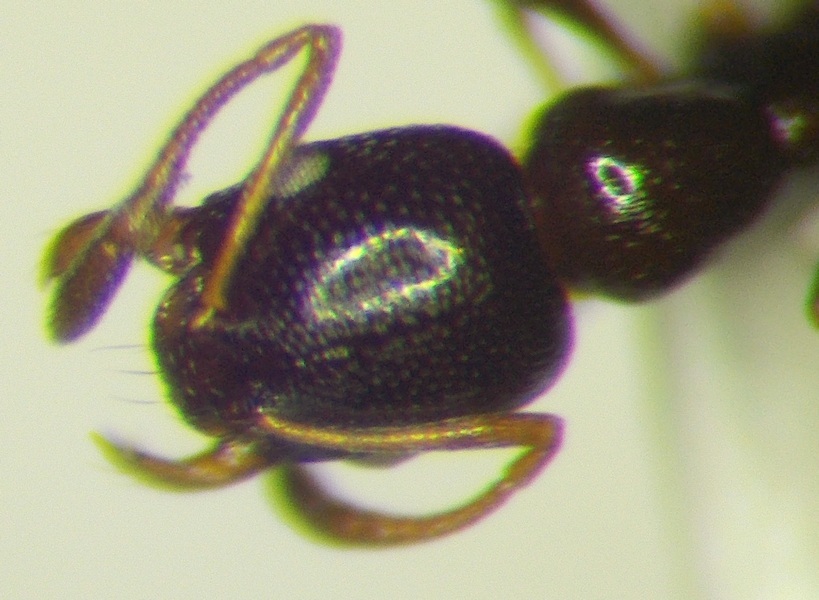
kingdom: Animalia
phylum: Arthropoda
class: Insecta
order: Hymenoptera
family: Formicidae
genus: Cardiocondyla
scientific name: Cardiocondyla ulianini
